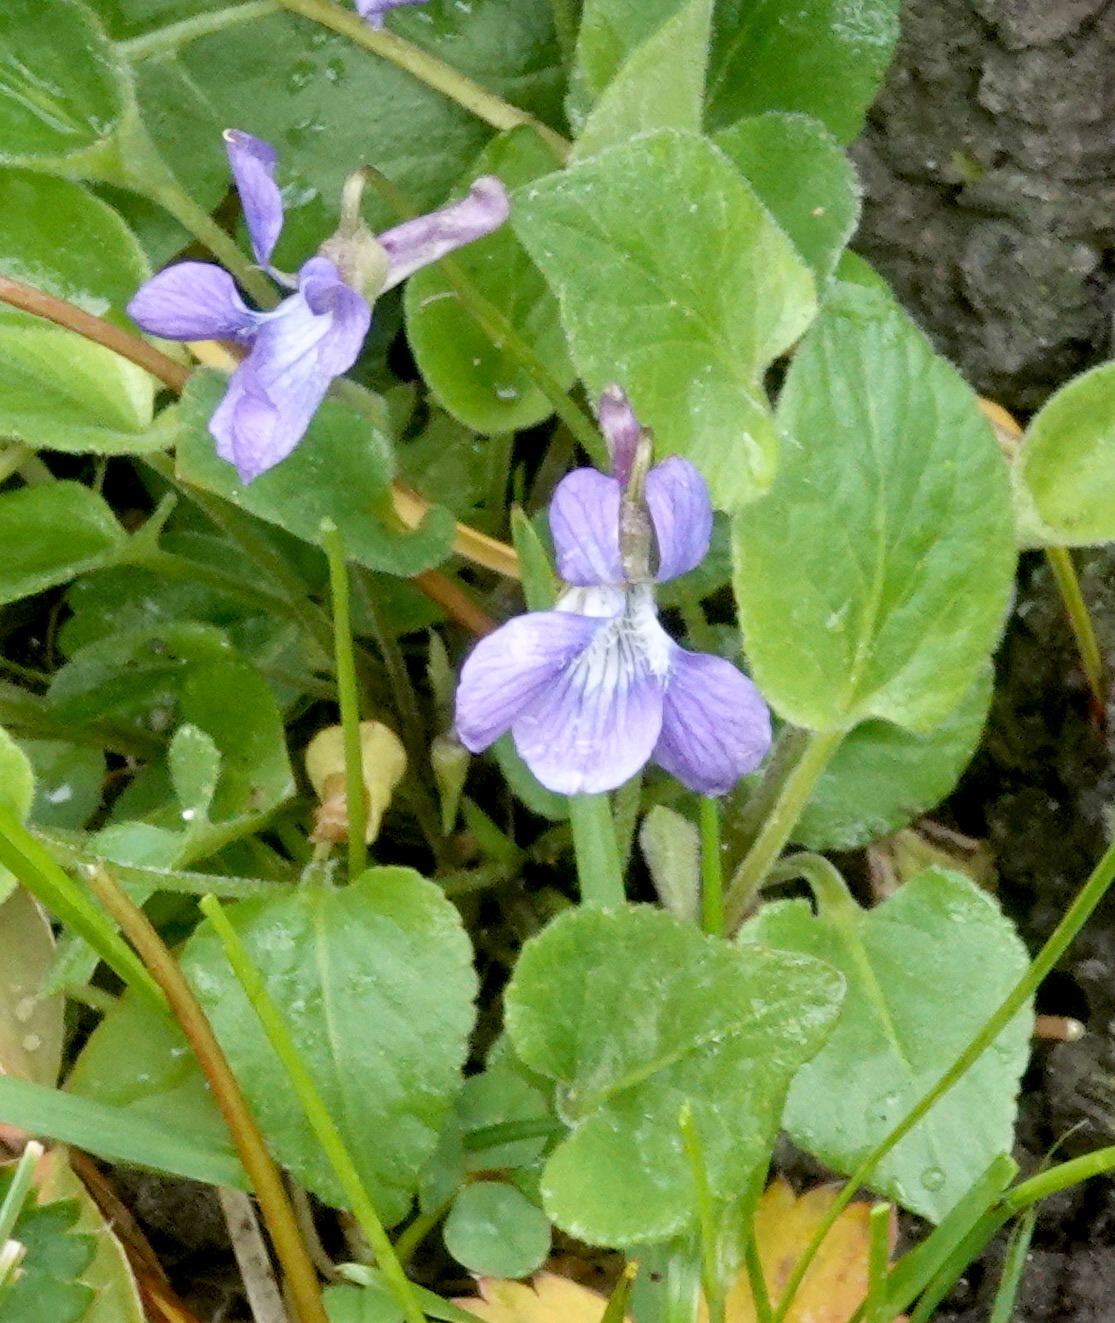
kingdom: Plantae
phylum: Tracheophyta
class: Magnoliopsida
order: Malpighiales
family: Violaceae
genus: Viola
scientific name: Viola adunca
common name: Sand violet
